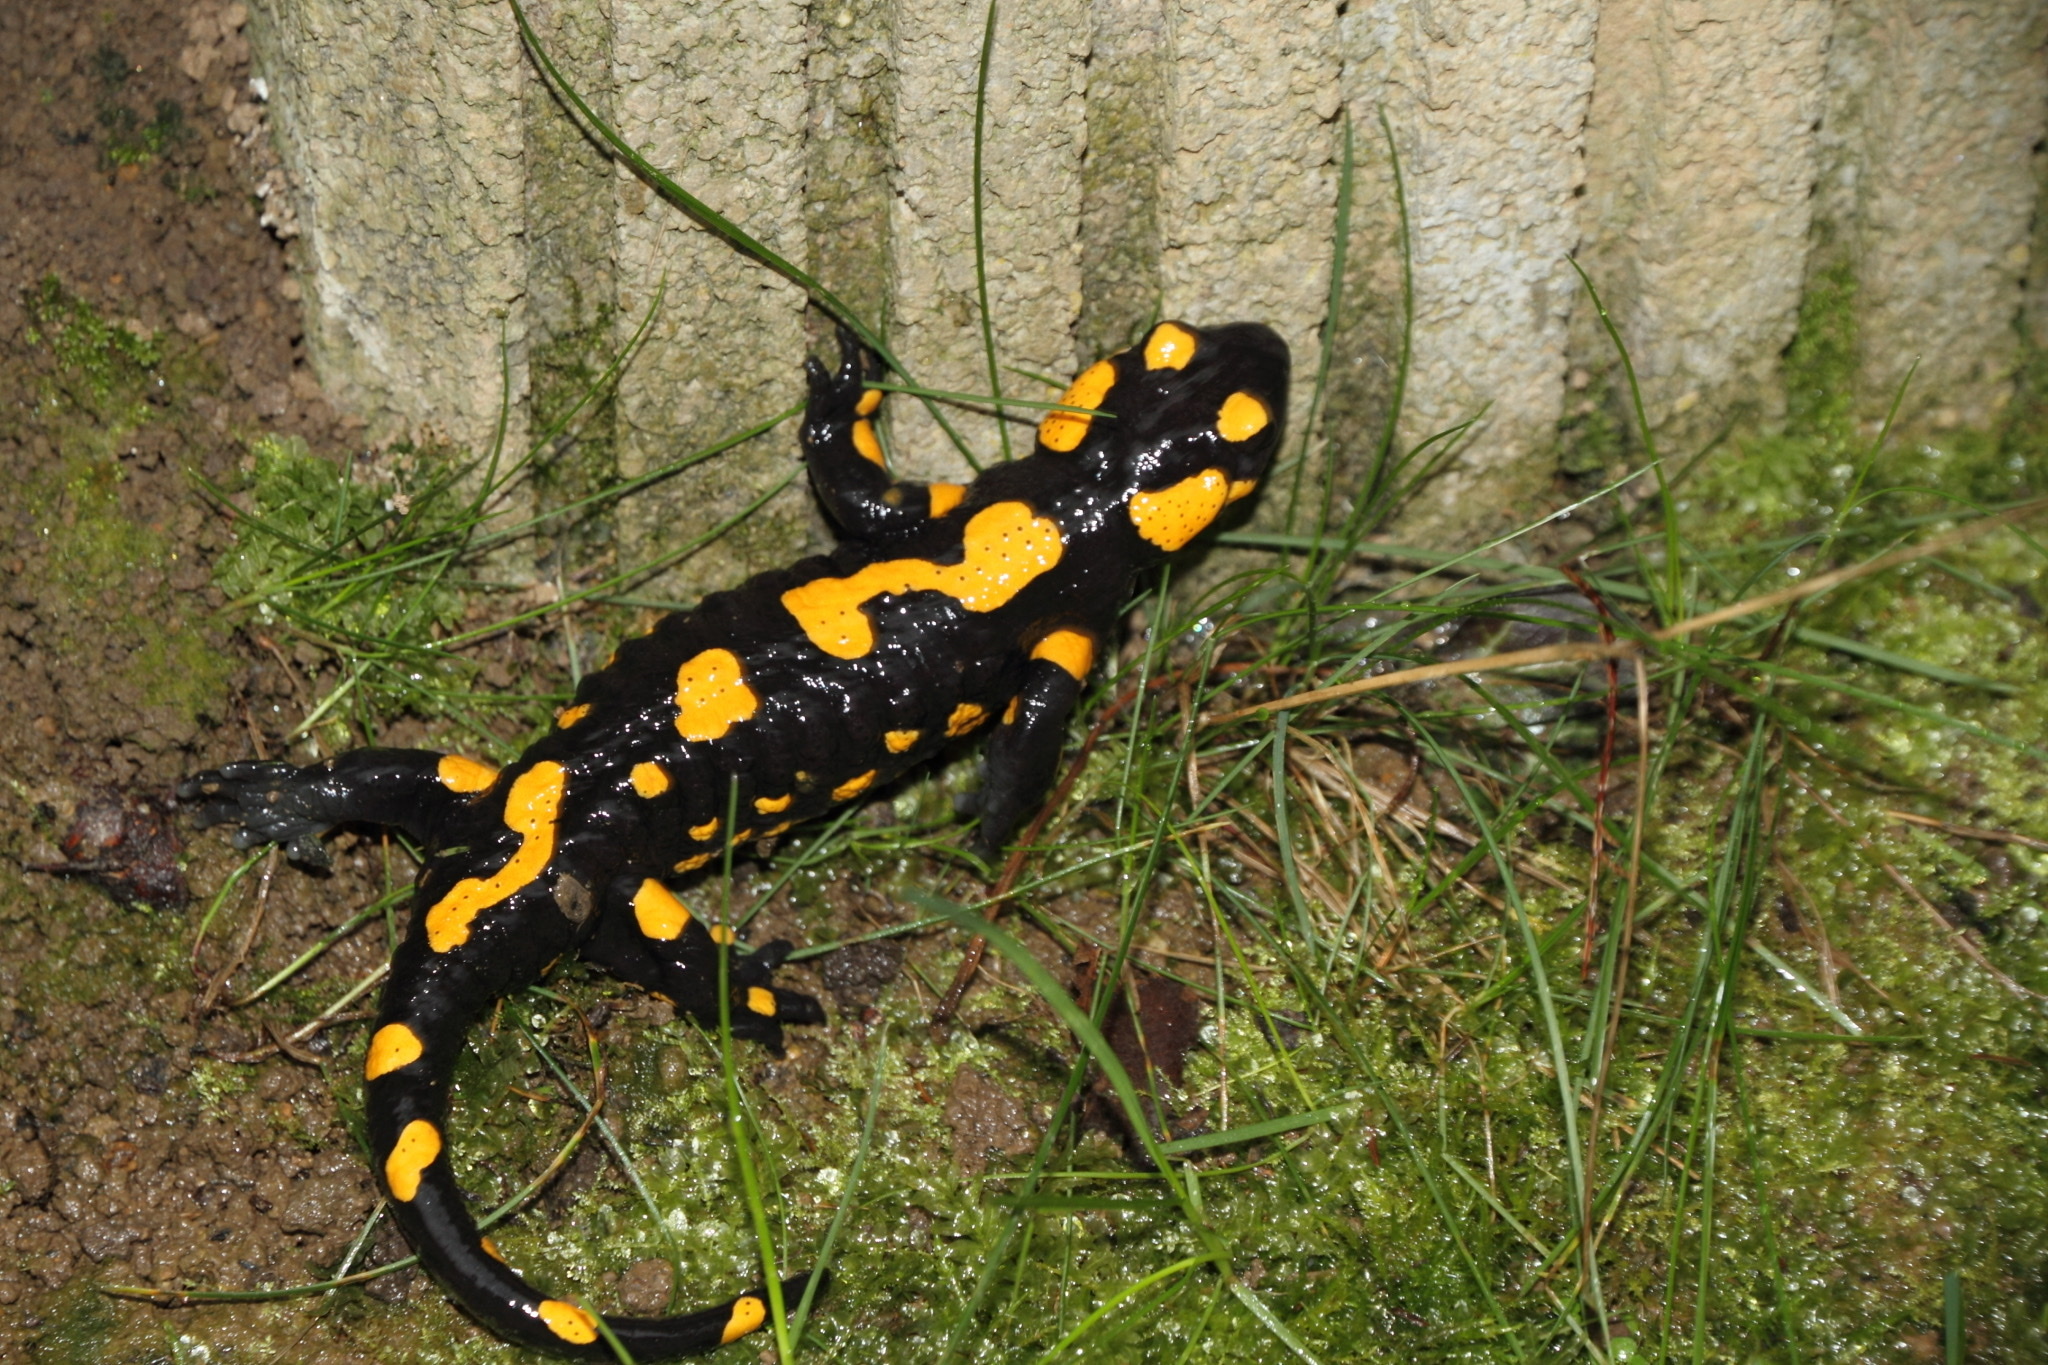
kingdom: Animalia
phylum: Chordata
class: Amphibia
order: Caudata
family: Salamandridae
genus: Salamandra
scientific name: Salamandra salamandra
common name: Fire salamander
